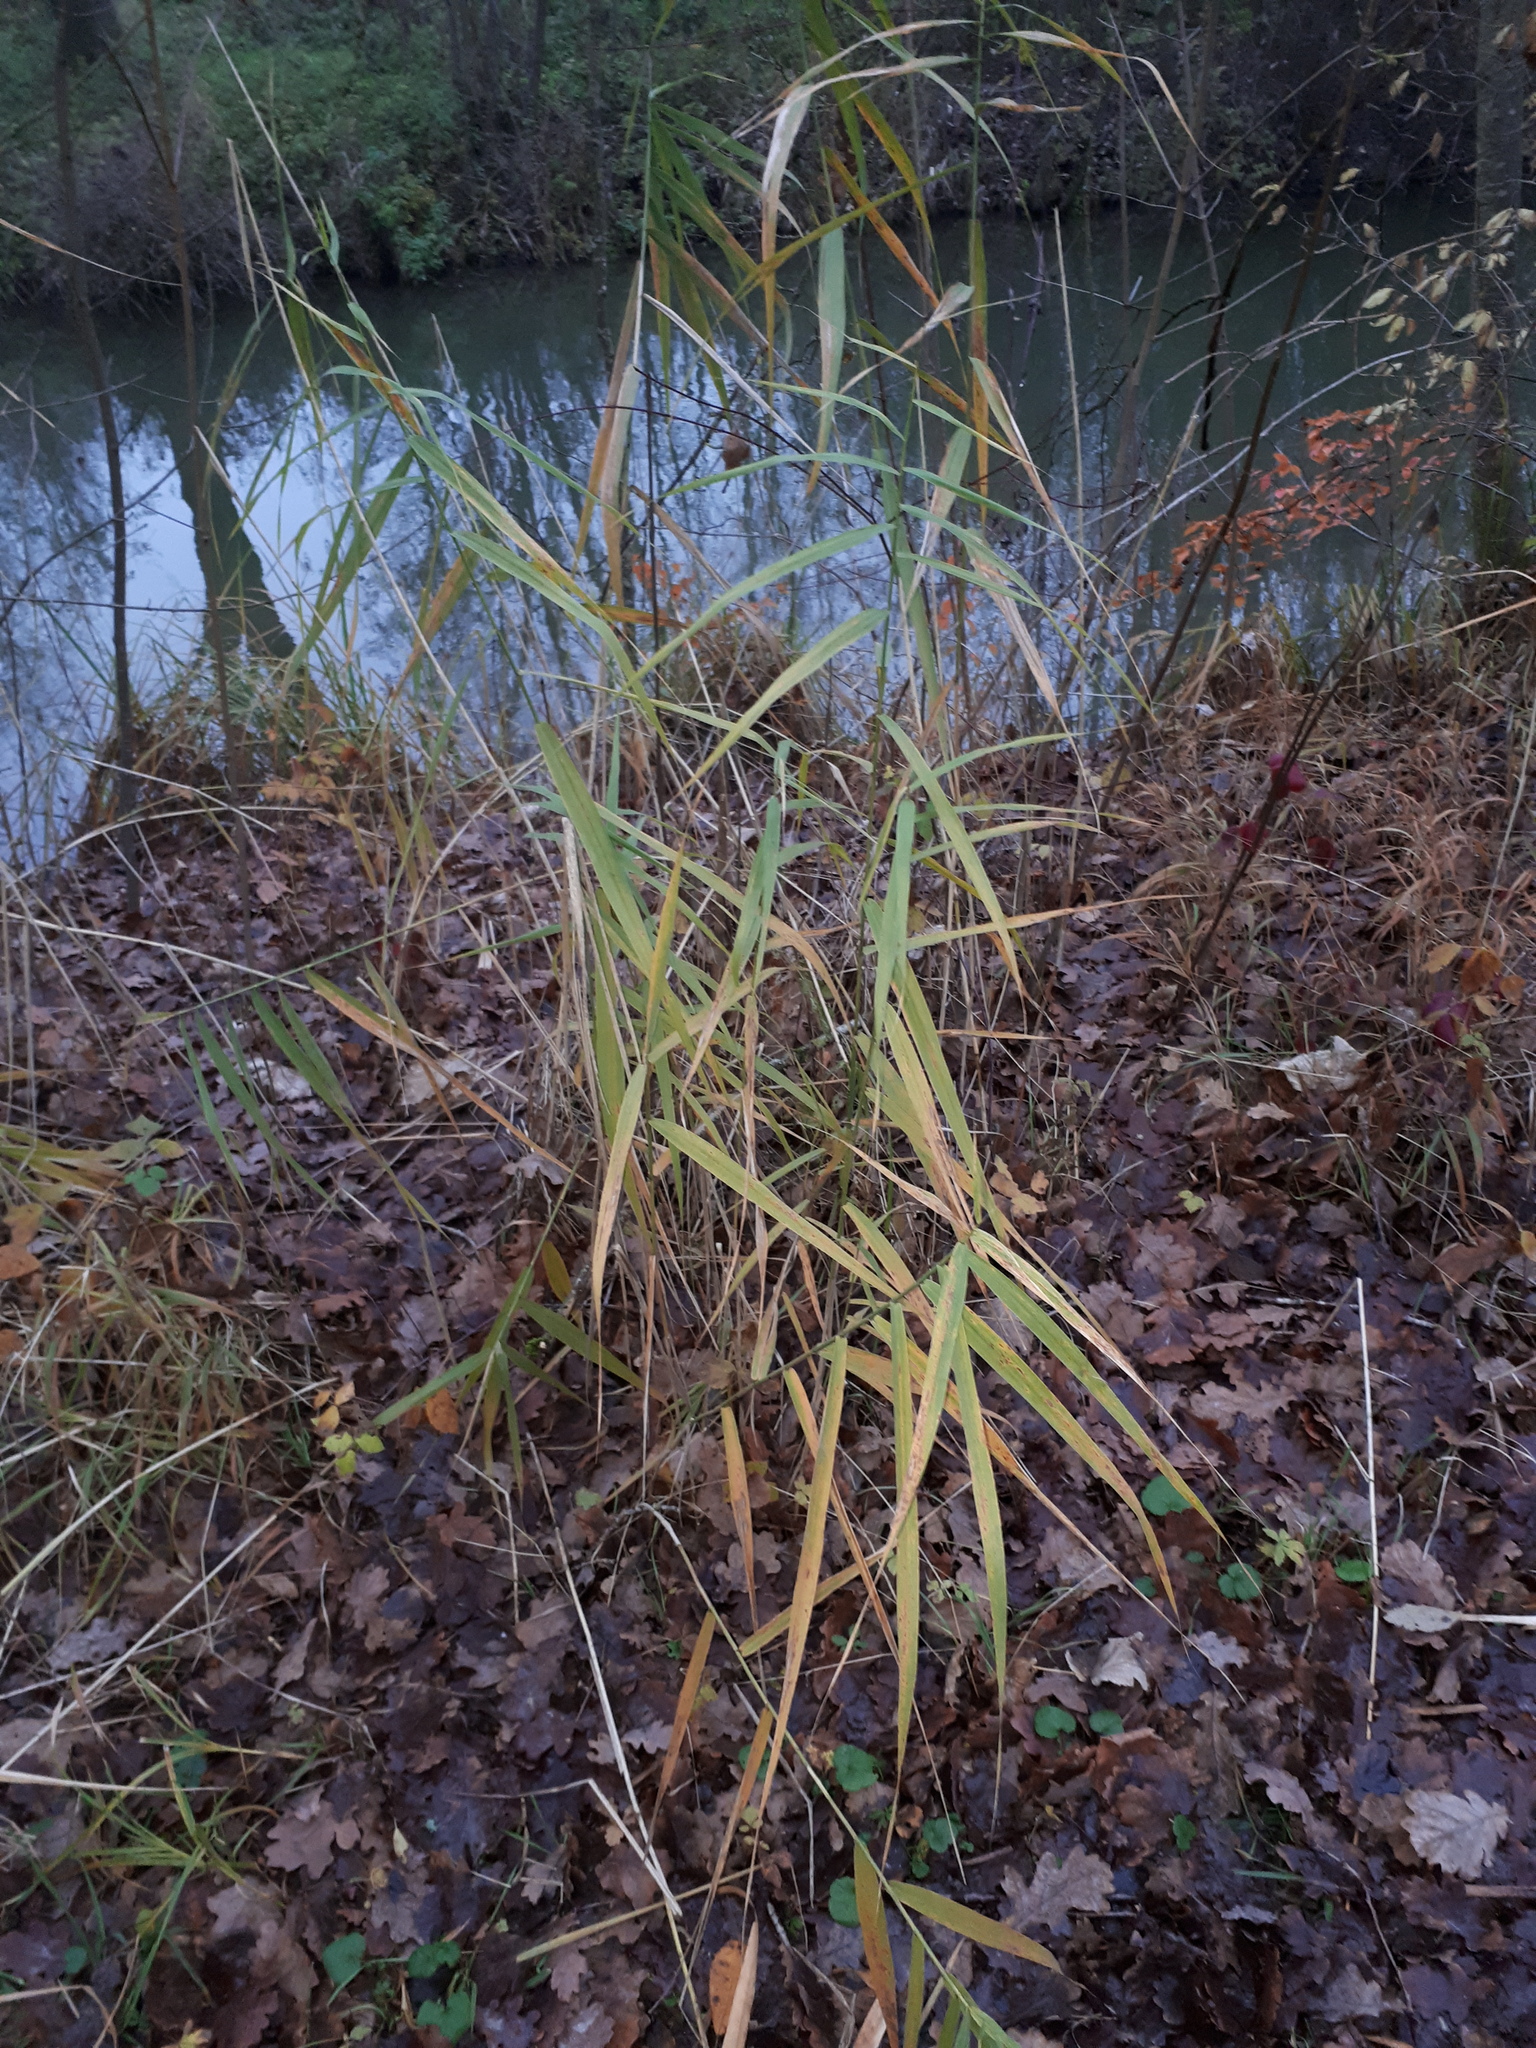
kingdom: Plantae
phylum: Tracheophyta
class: Liliopsida
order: Poales
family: Poaceae
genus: Phragmites
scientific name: Phragmites australis
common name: Common reed
